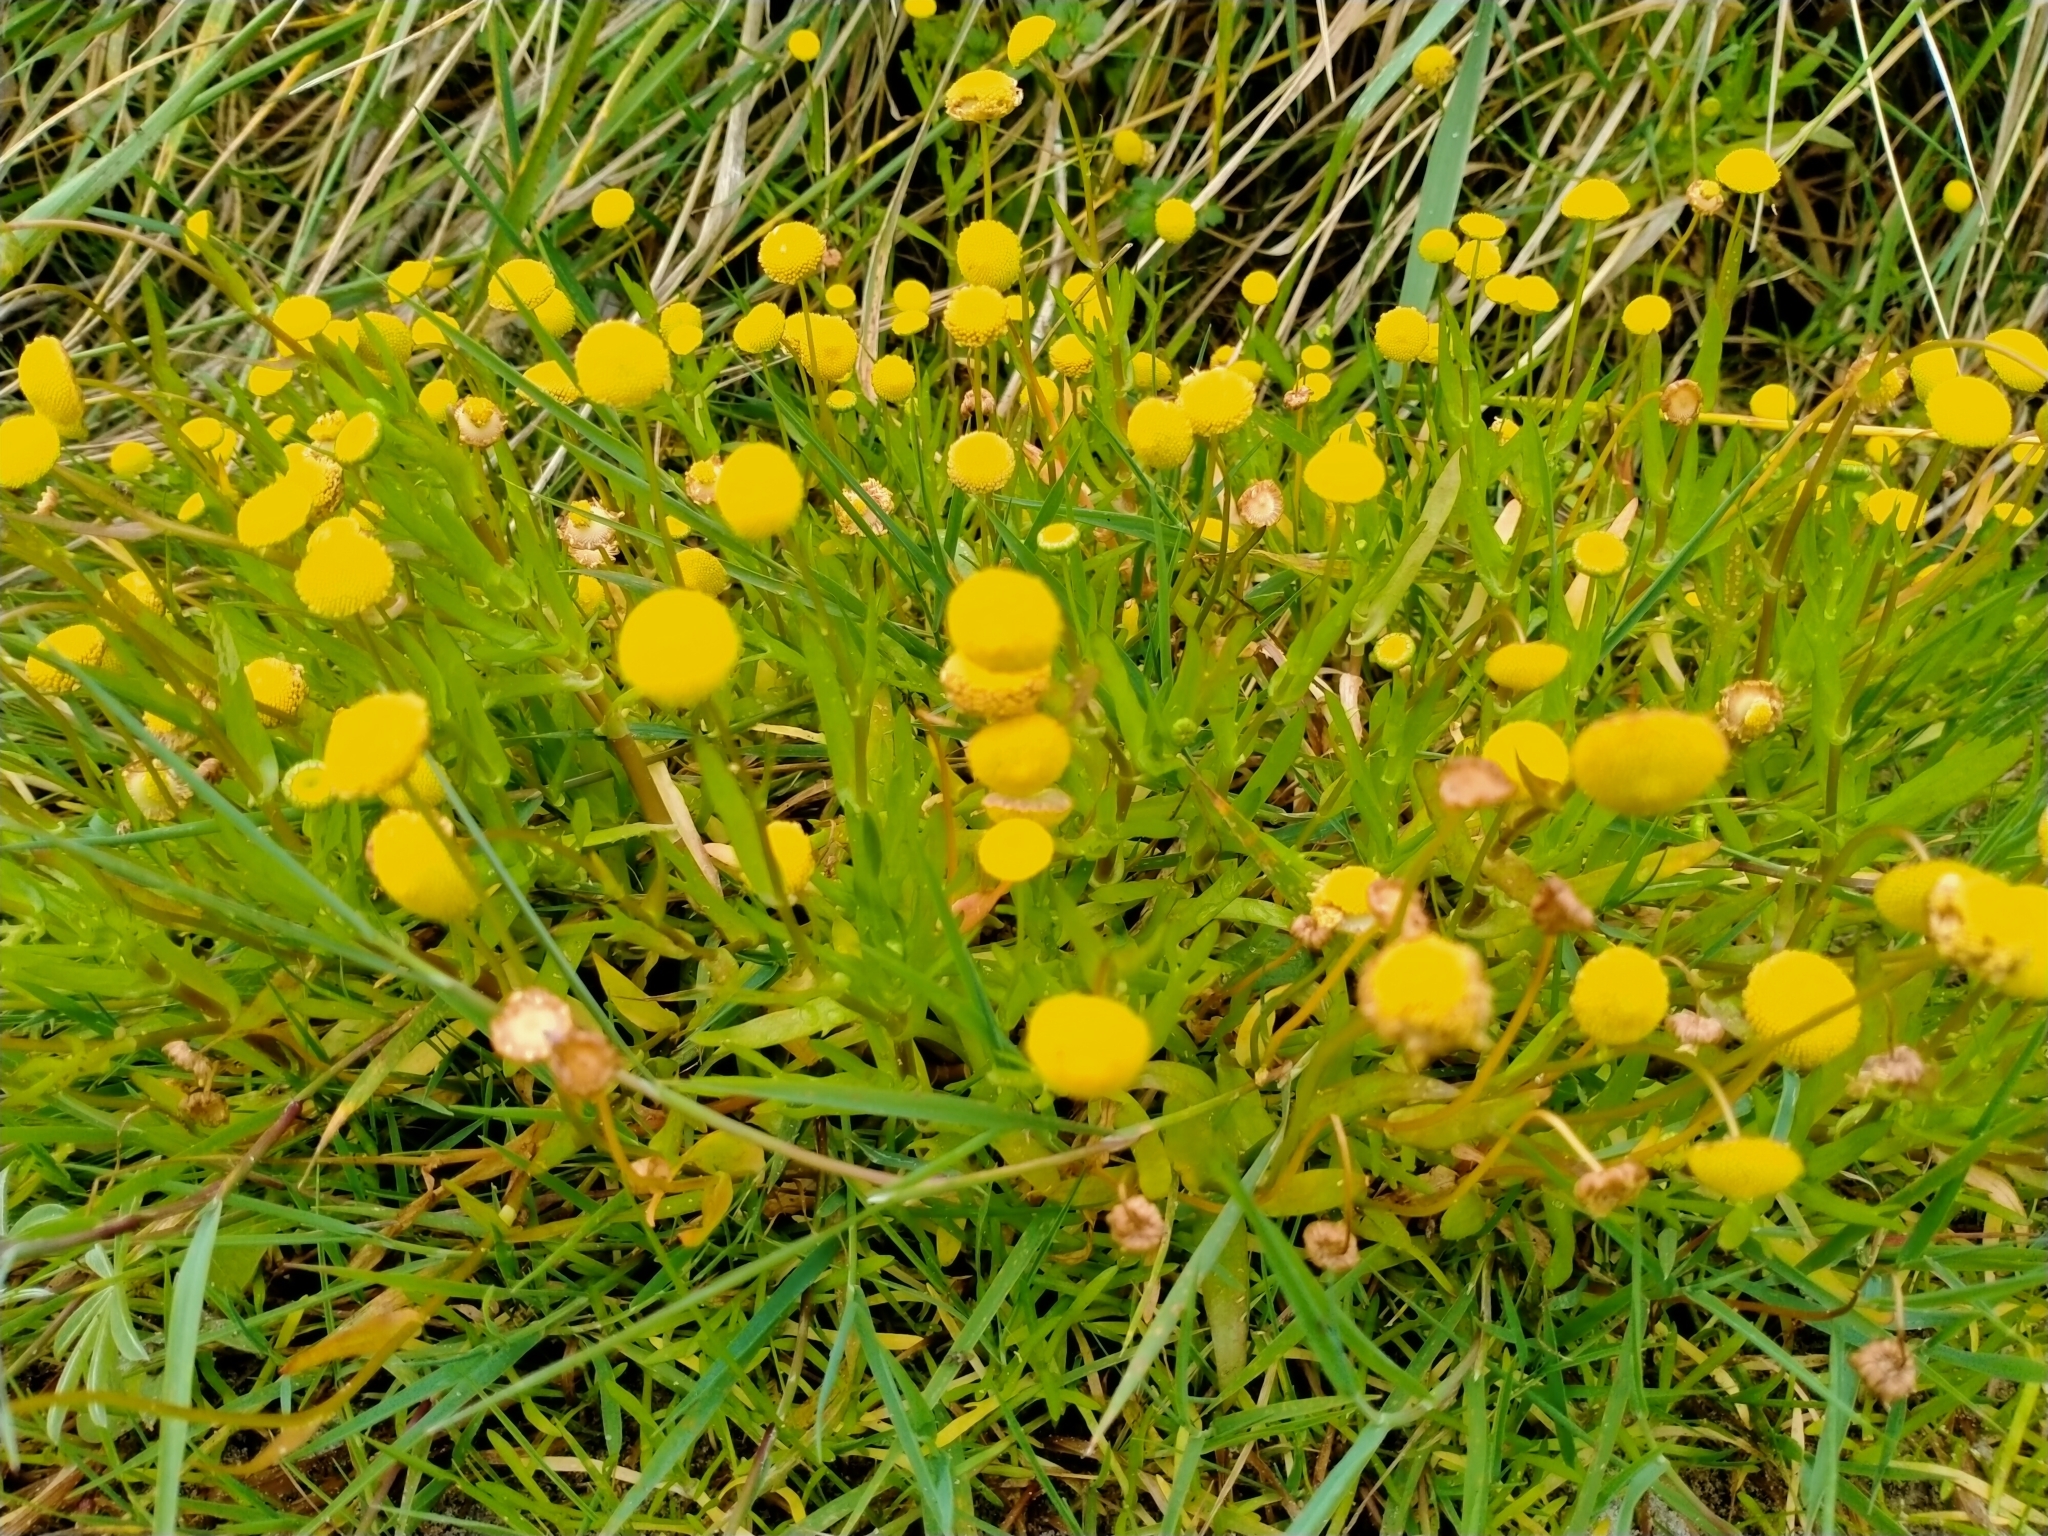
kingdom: Plantae
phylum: Tracheophyta
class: Magnoliopsida
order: Asterales
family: Asteraceae
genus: Cotula
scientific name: Cotula coronopifolia
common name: Buttonweed
